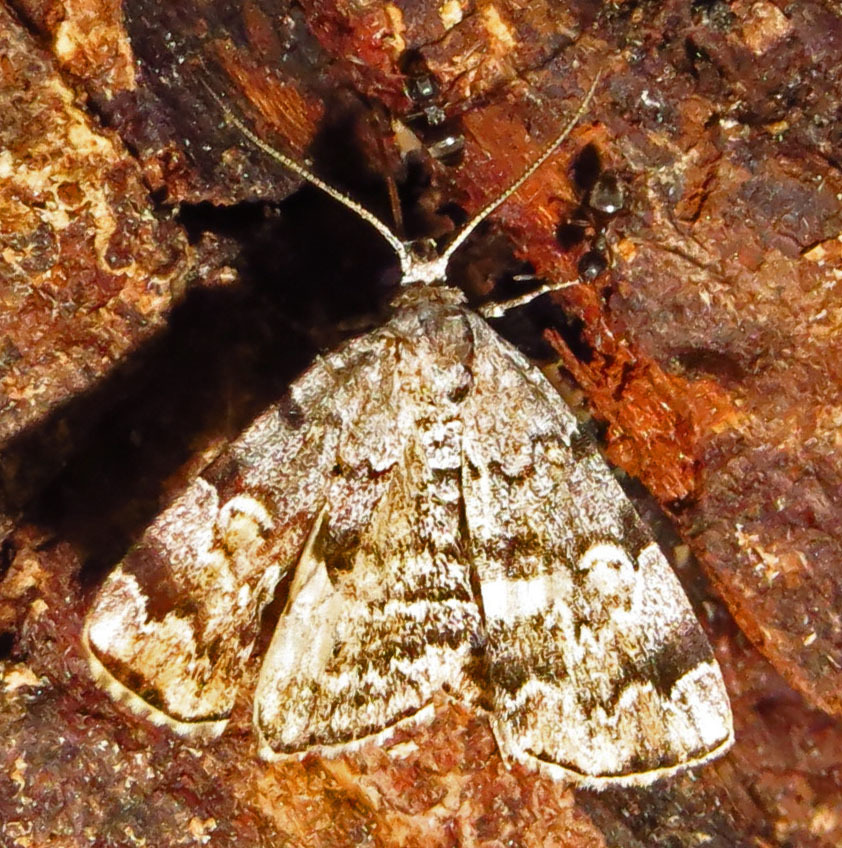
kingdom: Animalia
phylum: Arthropoda
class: Insecta
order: Lepidoptera
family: Erebidae
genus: Idia
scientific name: Idia americalis
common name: American idia moth
